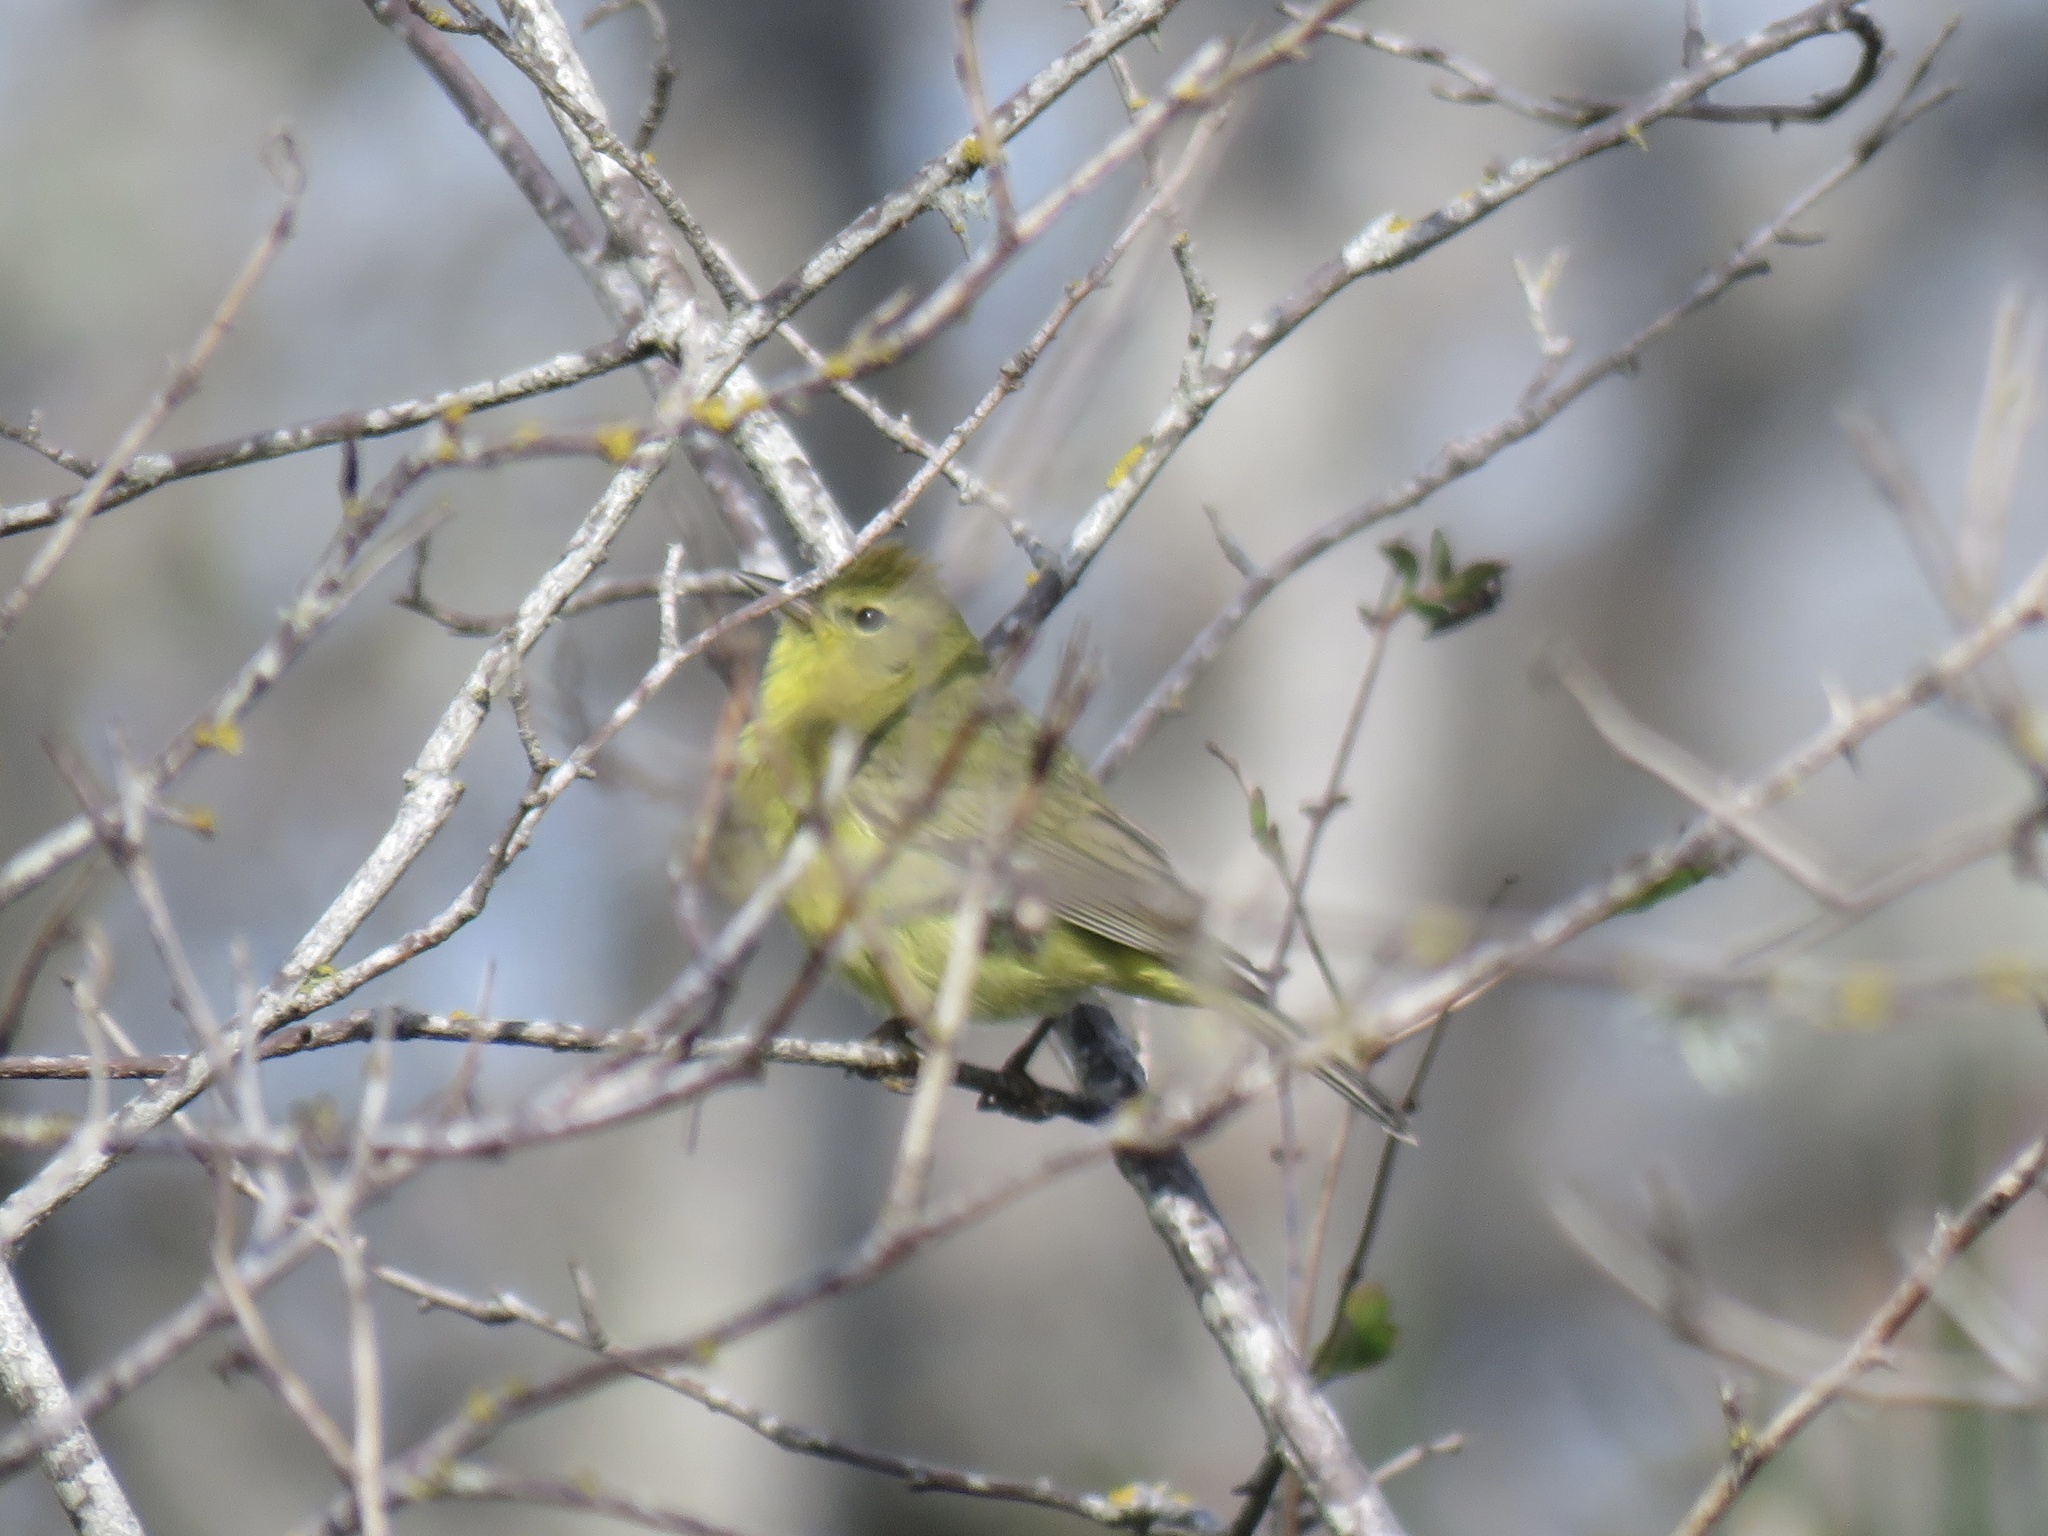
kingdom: Animalia
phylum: Chordata
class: Aves
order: Passeriformes
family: Parulidae
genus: Leiothlypis
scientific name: Leiothlypis celata
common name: Orange-crowned warbler
